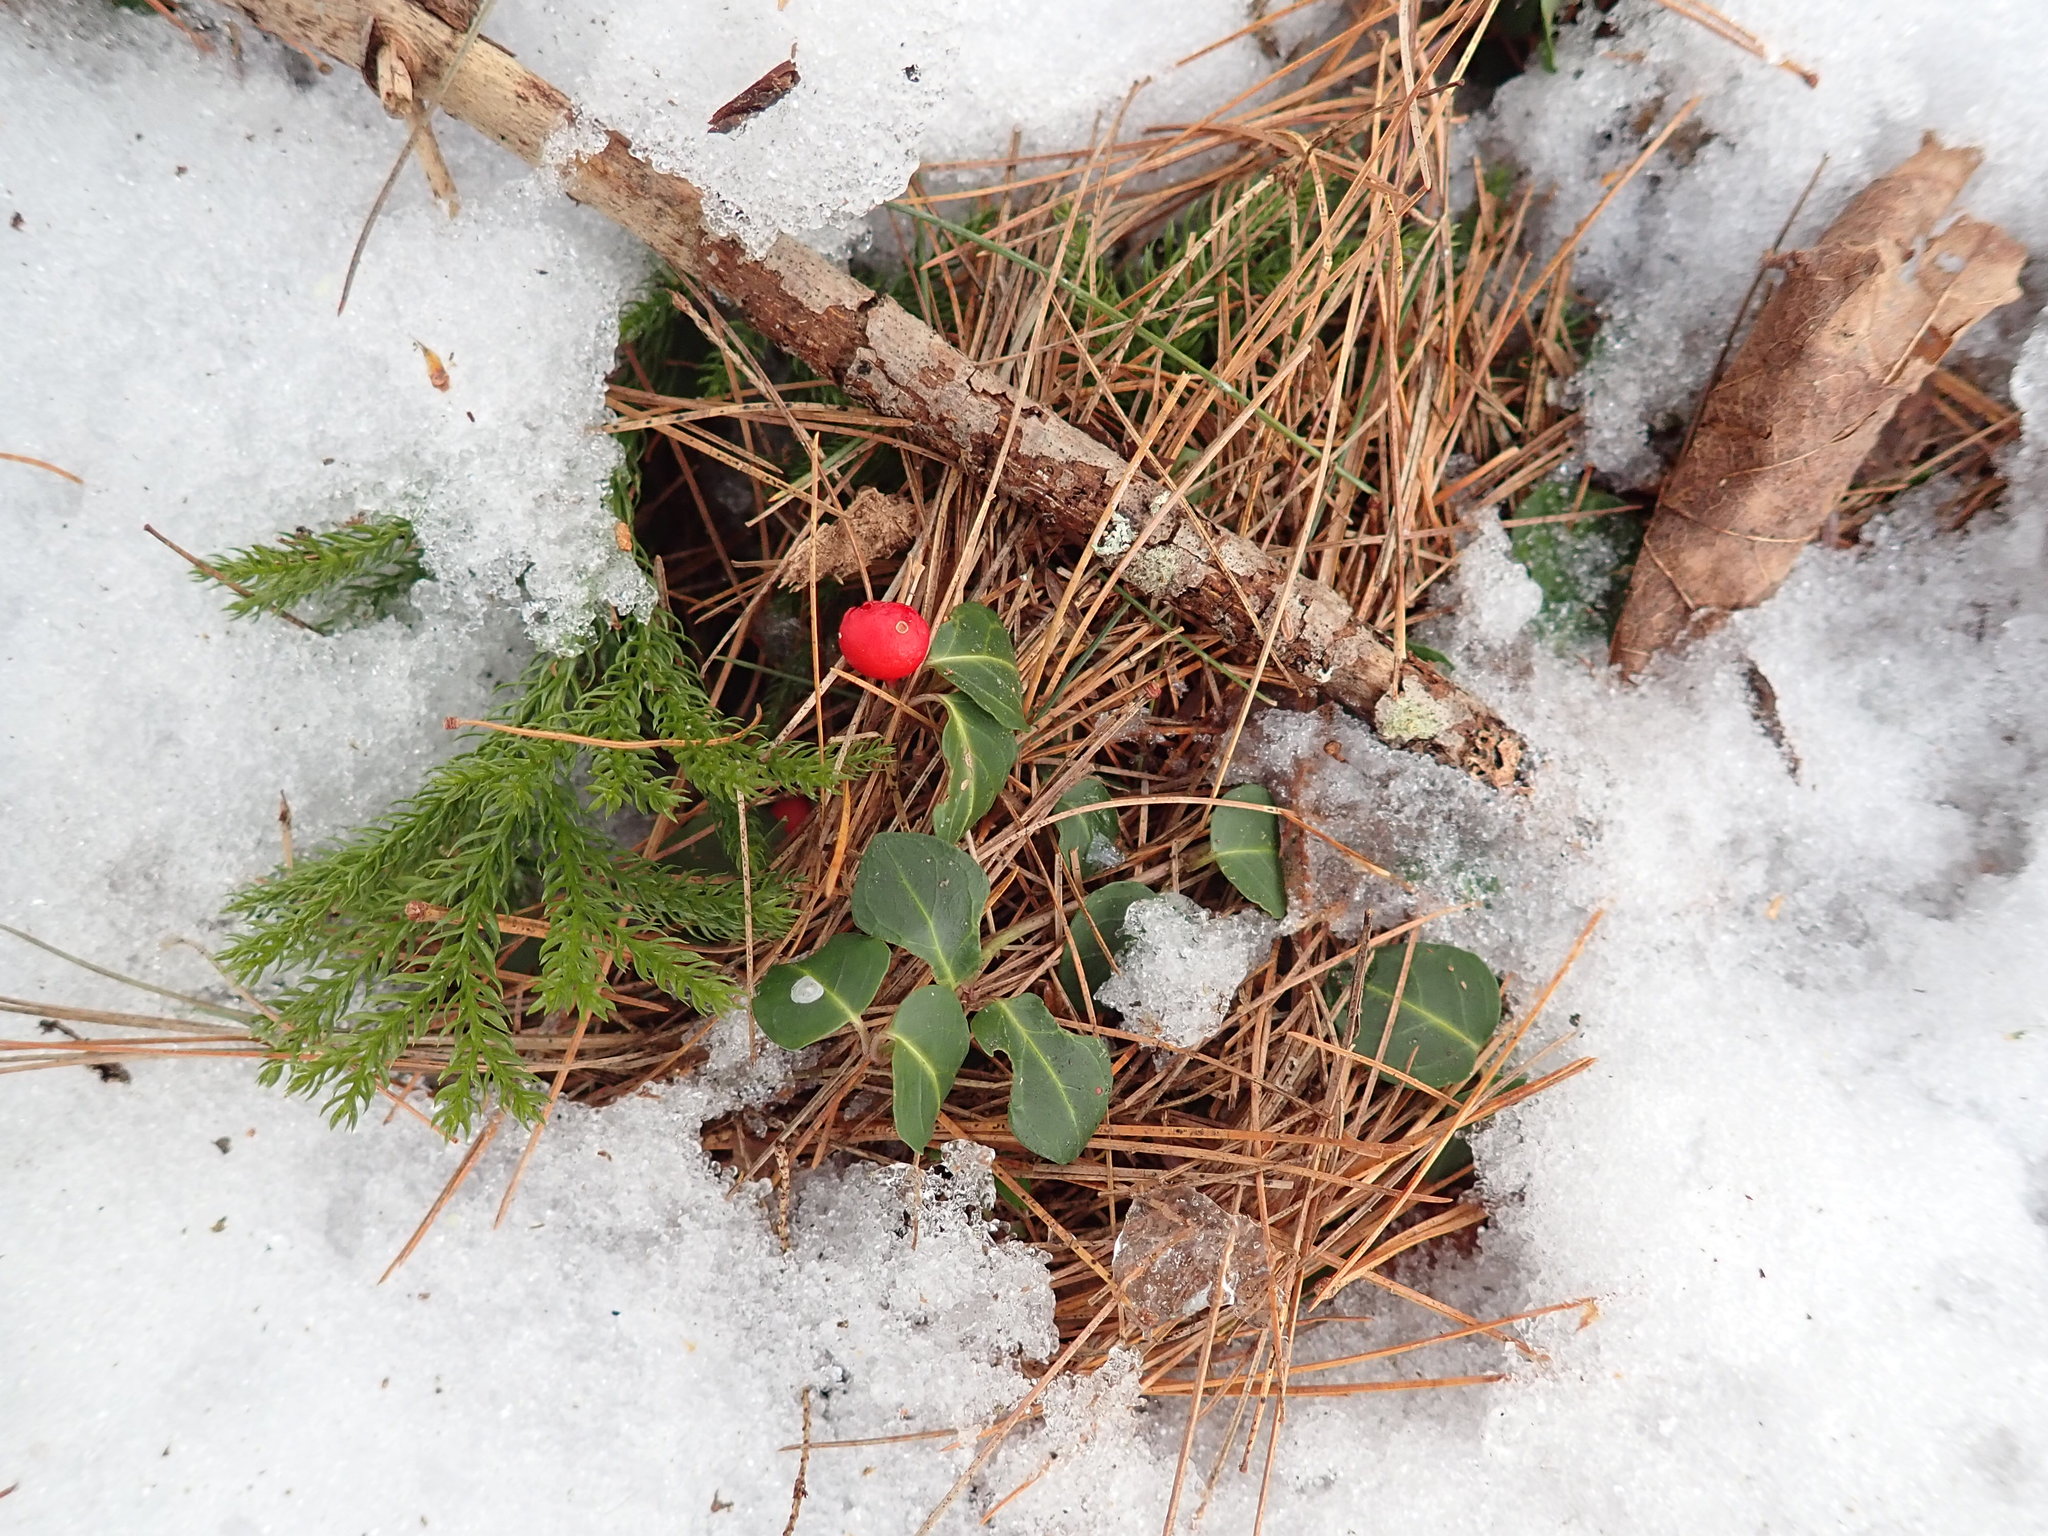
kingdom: Plantae
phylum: Tracheophyta
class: Magnoliopsida
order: Gentianales
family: Rubiaceae
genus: Mitchella
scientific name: Mitchella repens
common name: Partridge-berry
